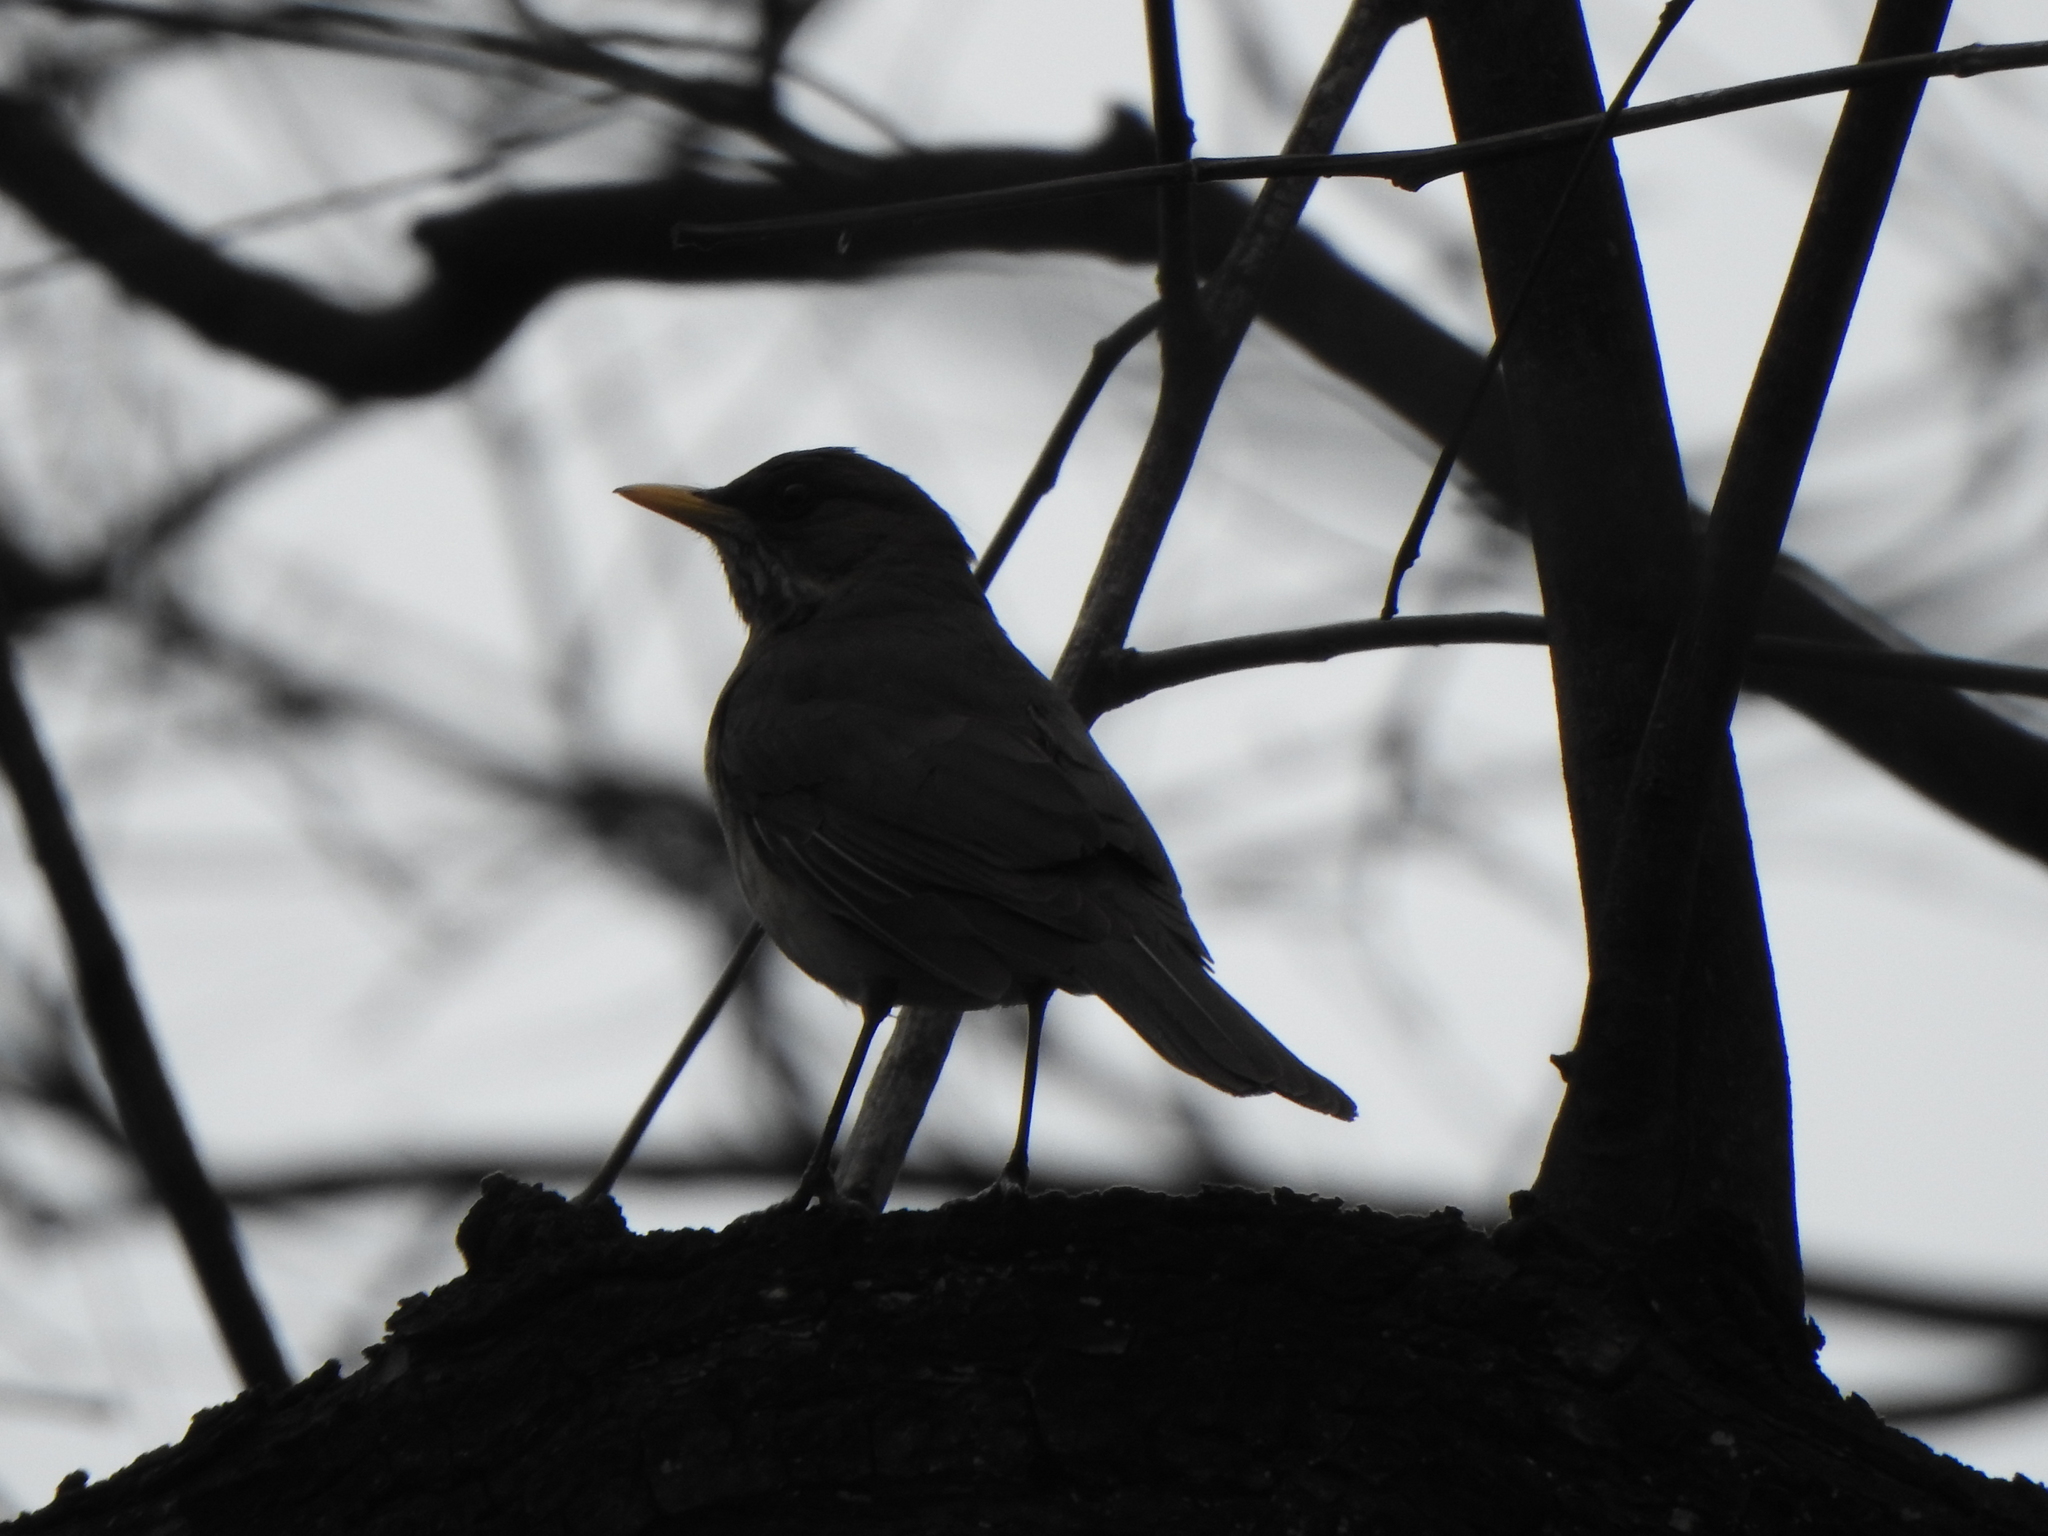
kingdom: Animalia
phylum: Chordata
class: Aves
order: Passeriformes
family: Turdidae
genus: Turdus
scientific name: Turdus amaurochalinus
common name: Creamy-bellied thrush
